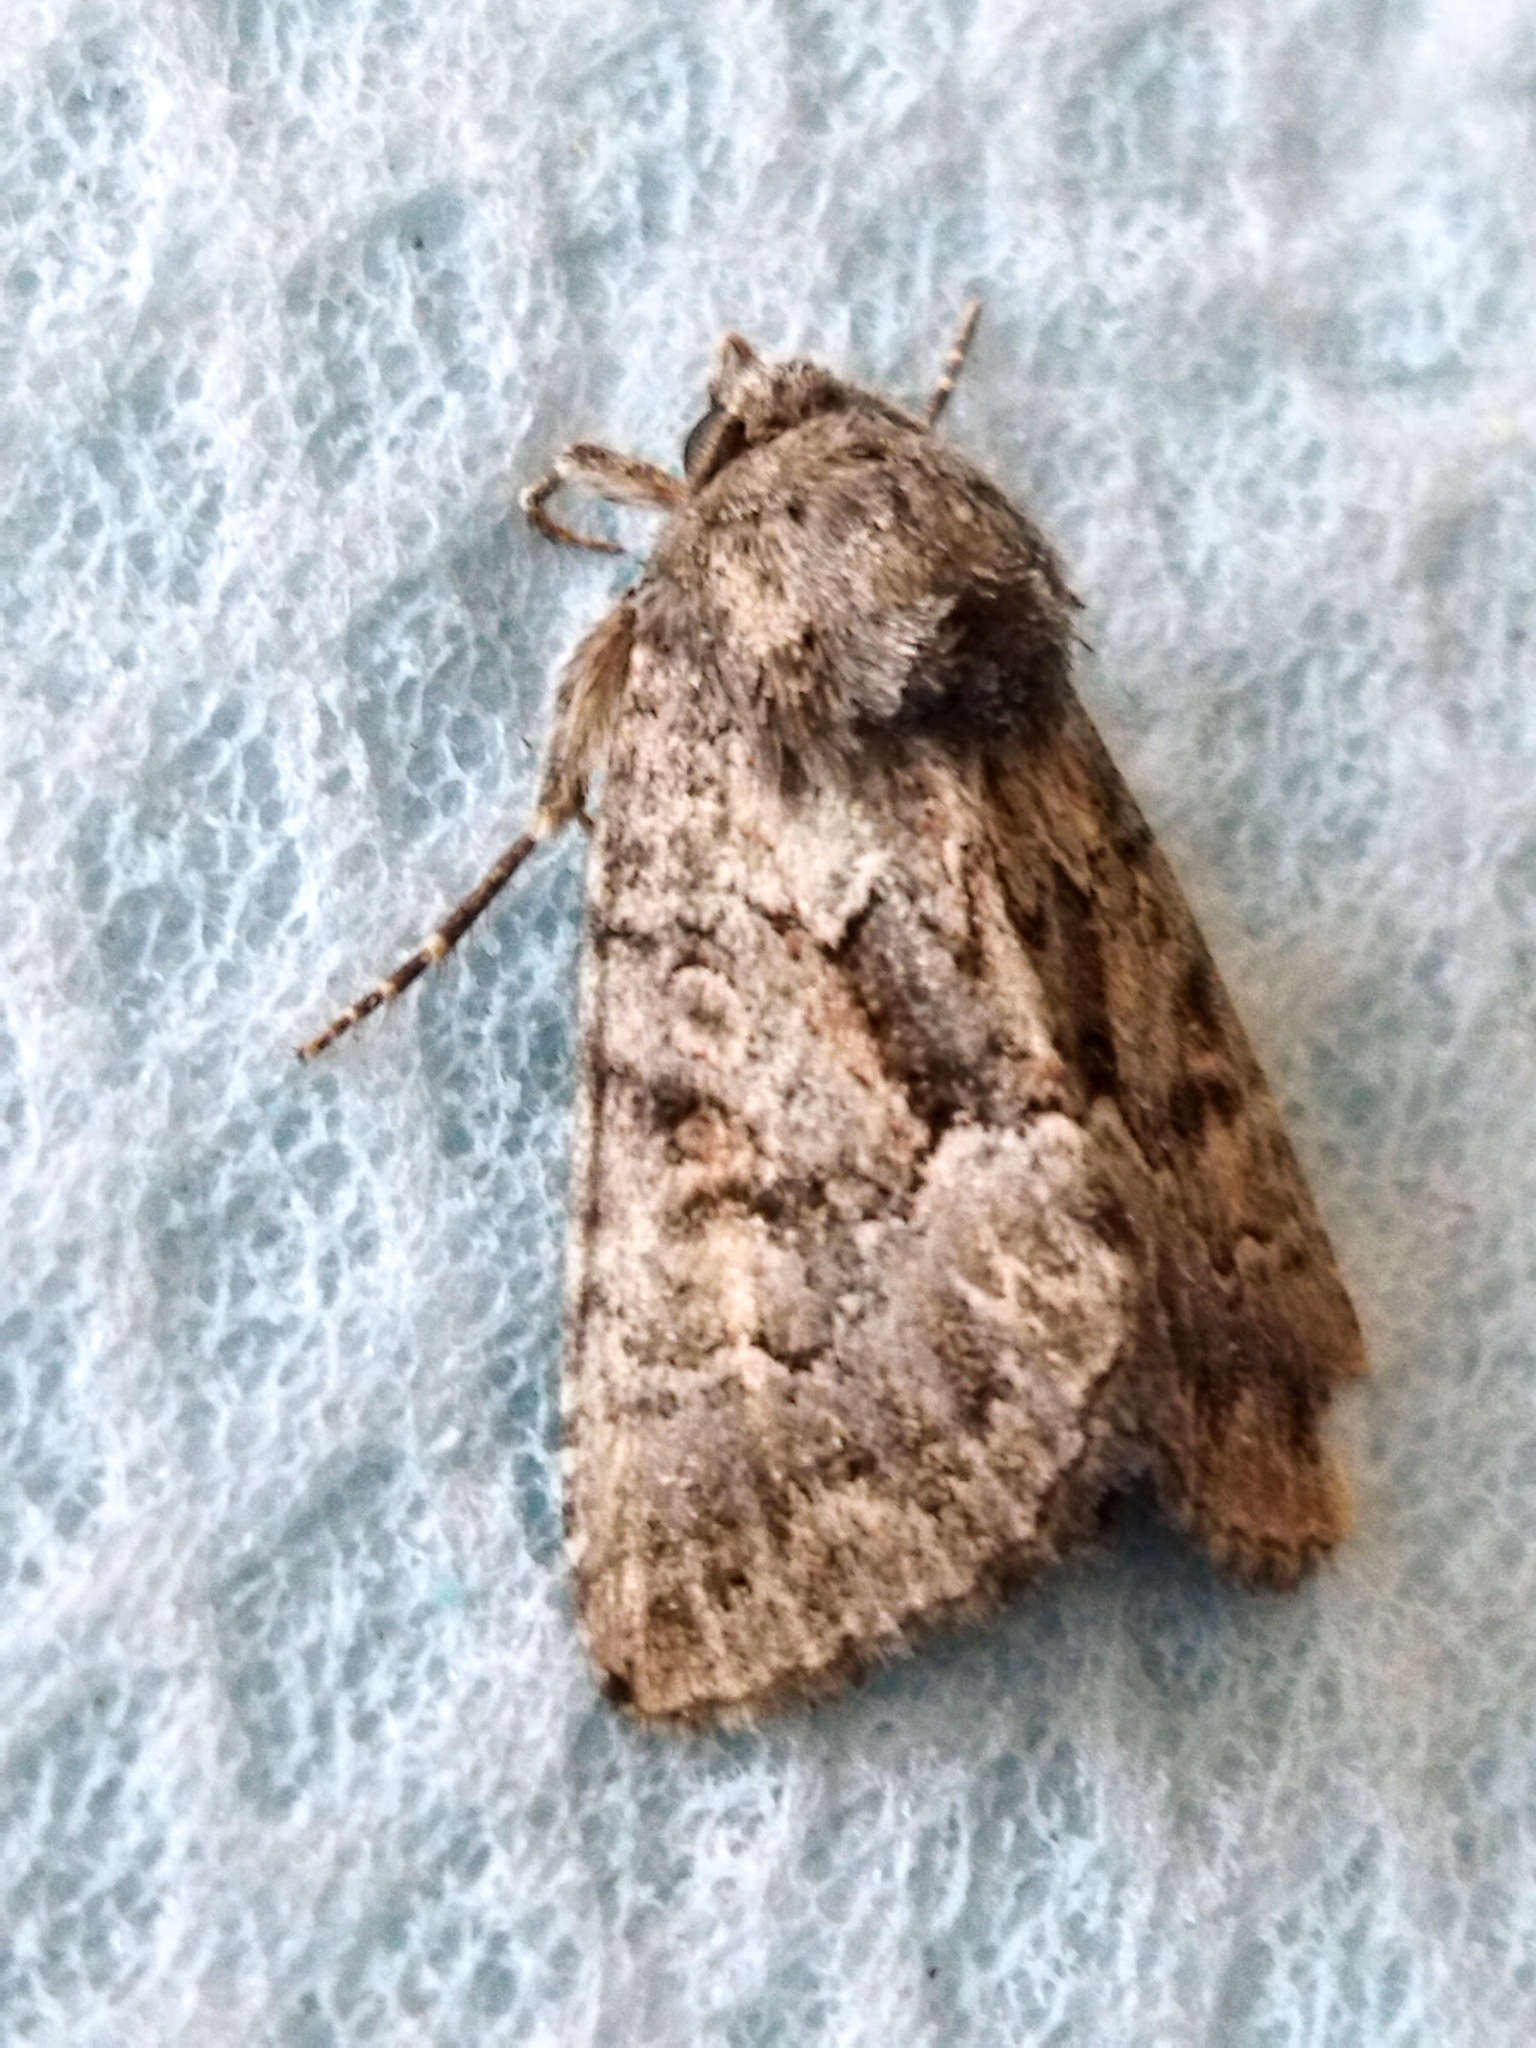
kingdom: Animalia
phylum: Arthropoda
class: Insecta
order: Lepidoptera
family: Noctuidae
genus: Thalpophila
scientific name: Thalpophila matura
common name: Straw underwing
